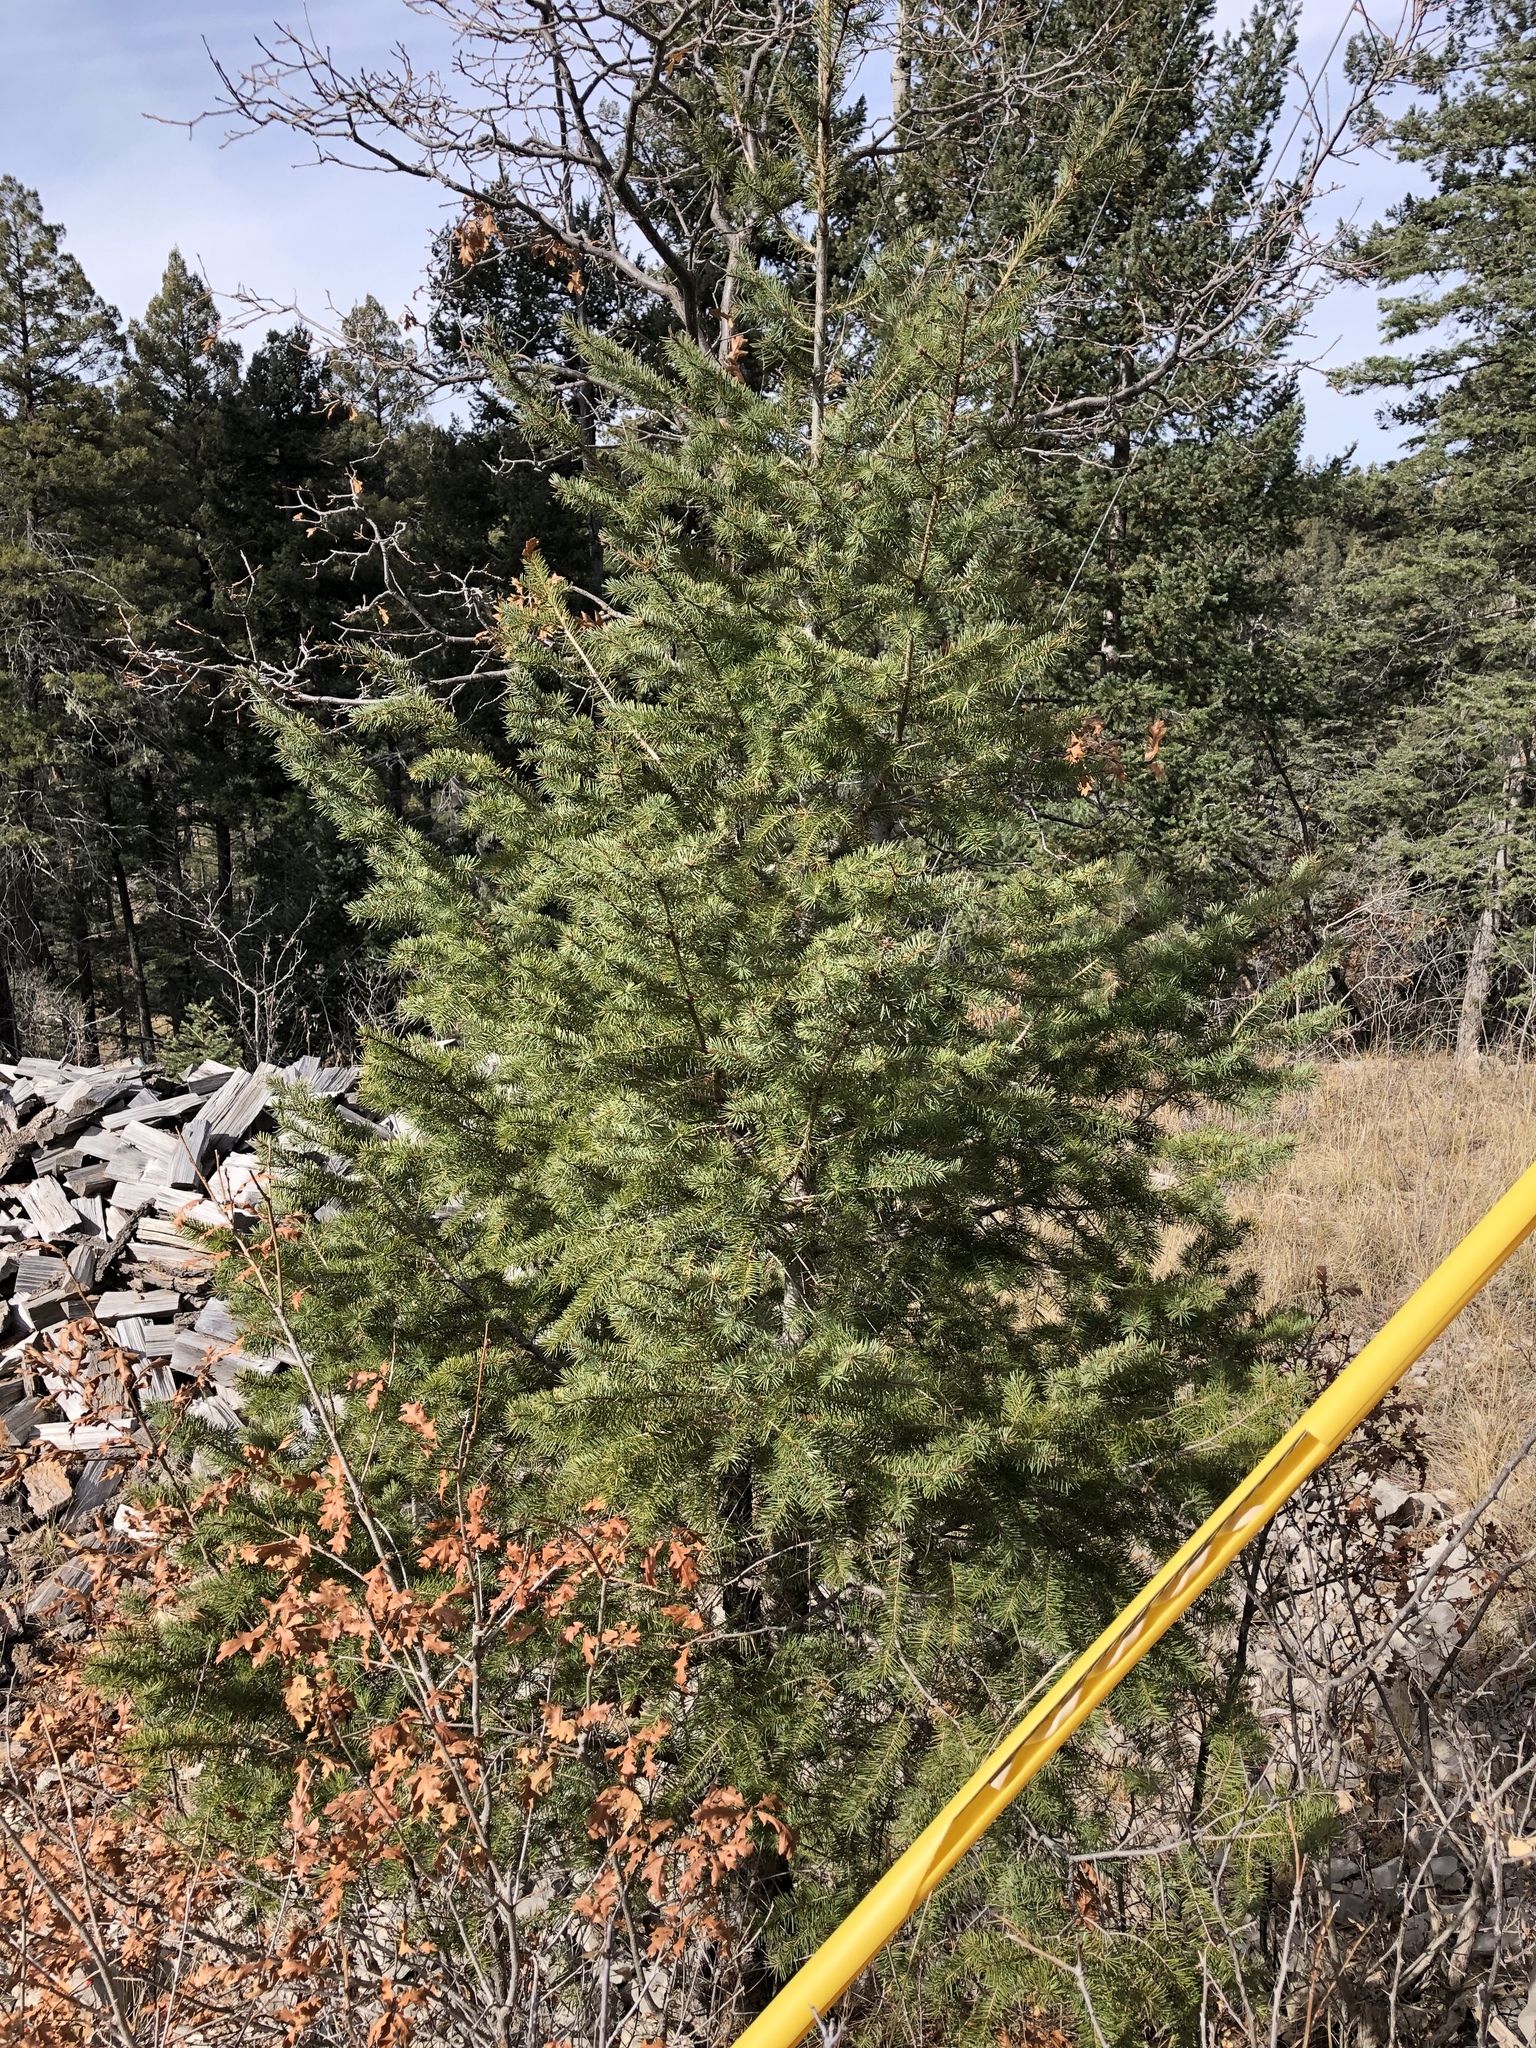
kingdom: Plantae
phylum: Tracheophyta
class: Pinopsida
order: Pinales
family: Pinaceae
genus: Pseudotsuga
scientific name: Pseudotsuga menziesii
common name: Douglas fir
